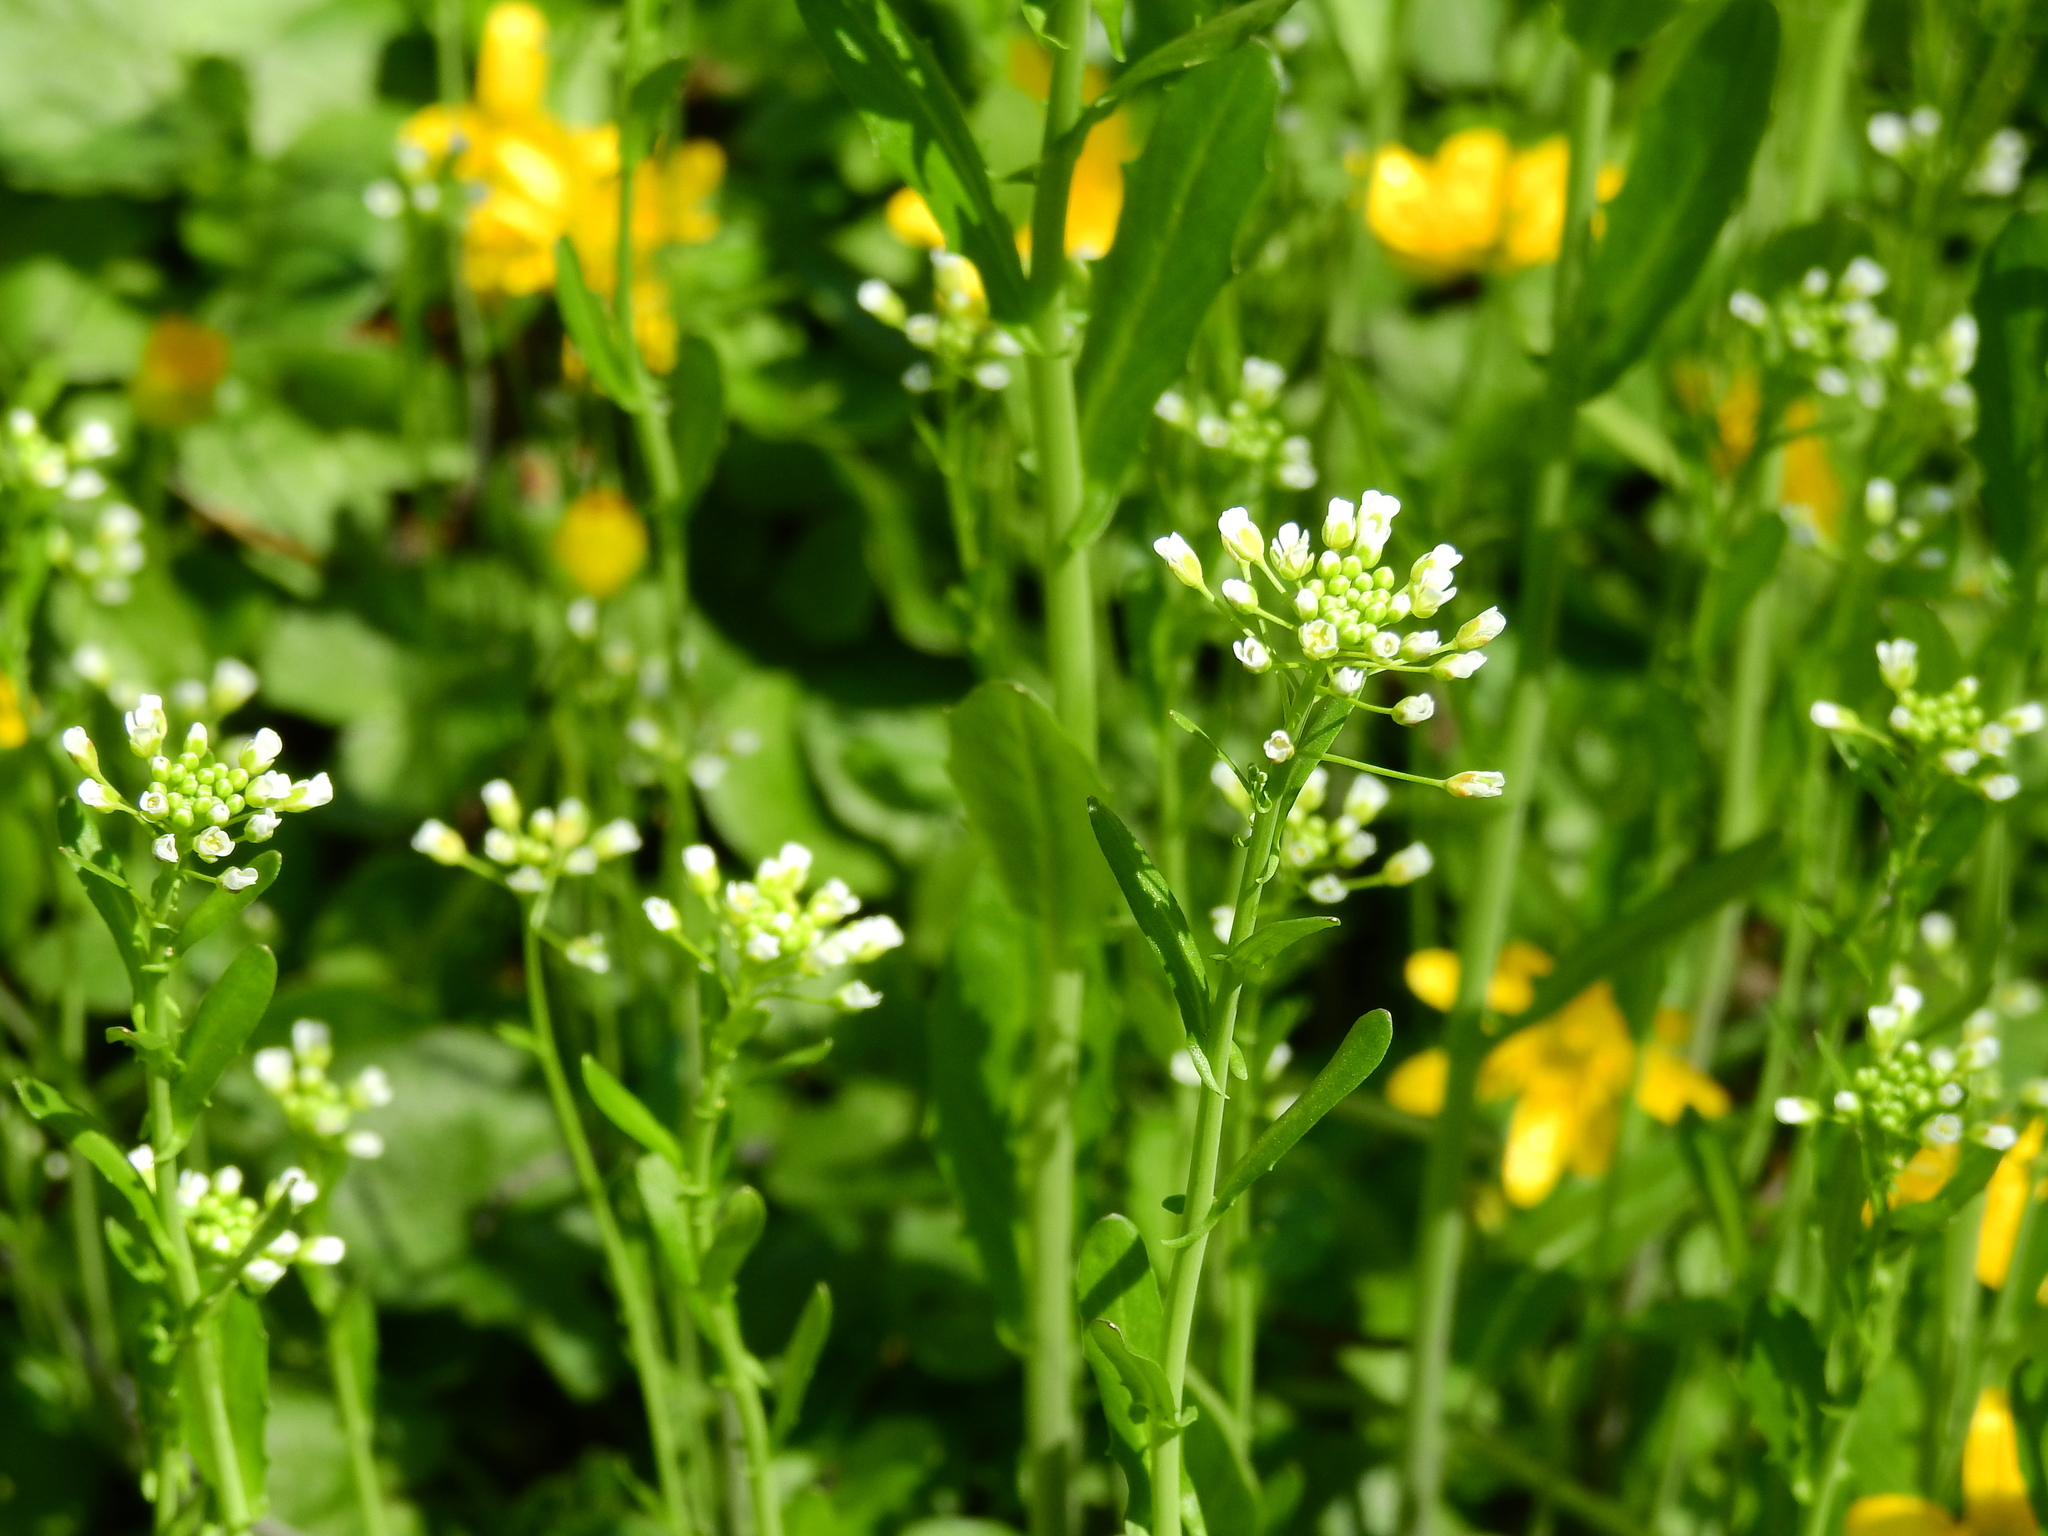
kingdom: Plantae
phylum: Tracheophyta
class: Magnoliopsida
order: Brassicales
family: Brassicaceae
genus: Mummenhoffia
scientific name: Mummenhoffia alliacea
